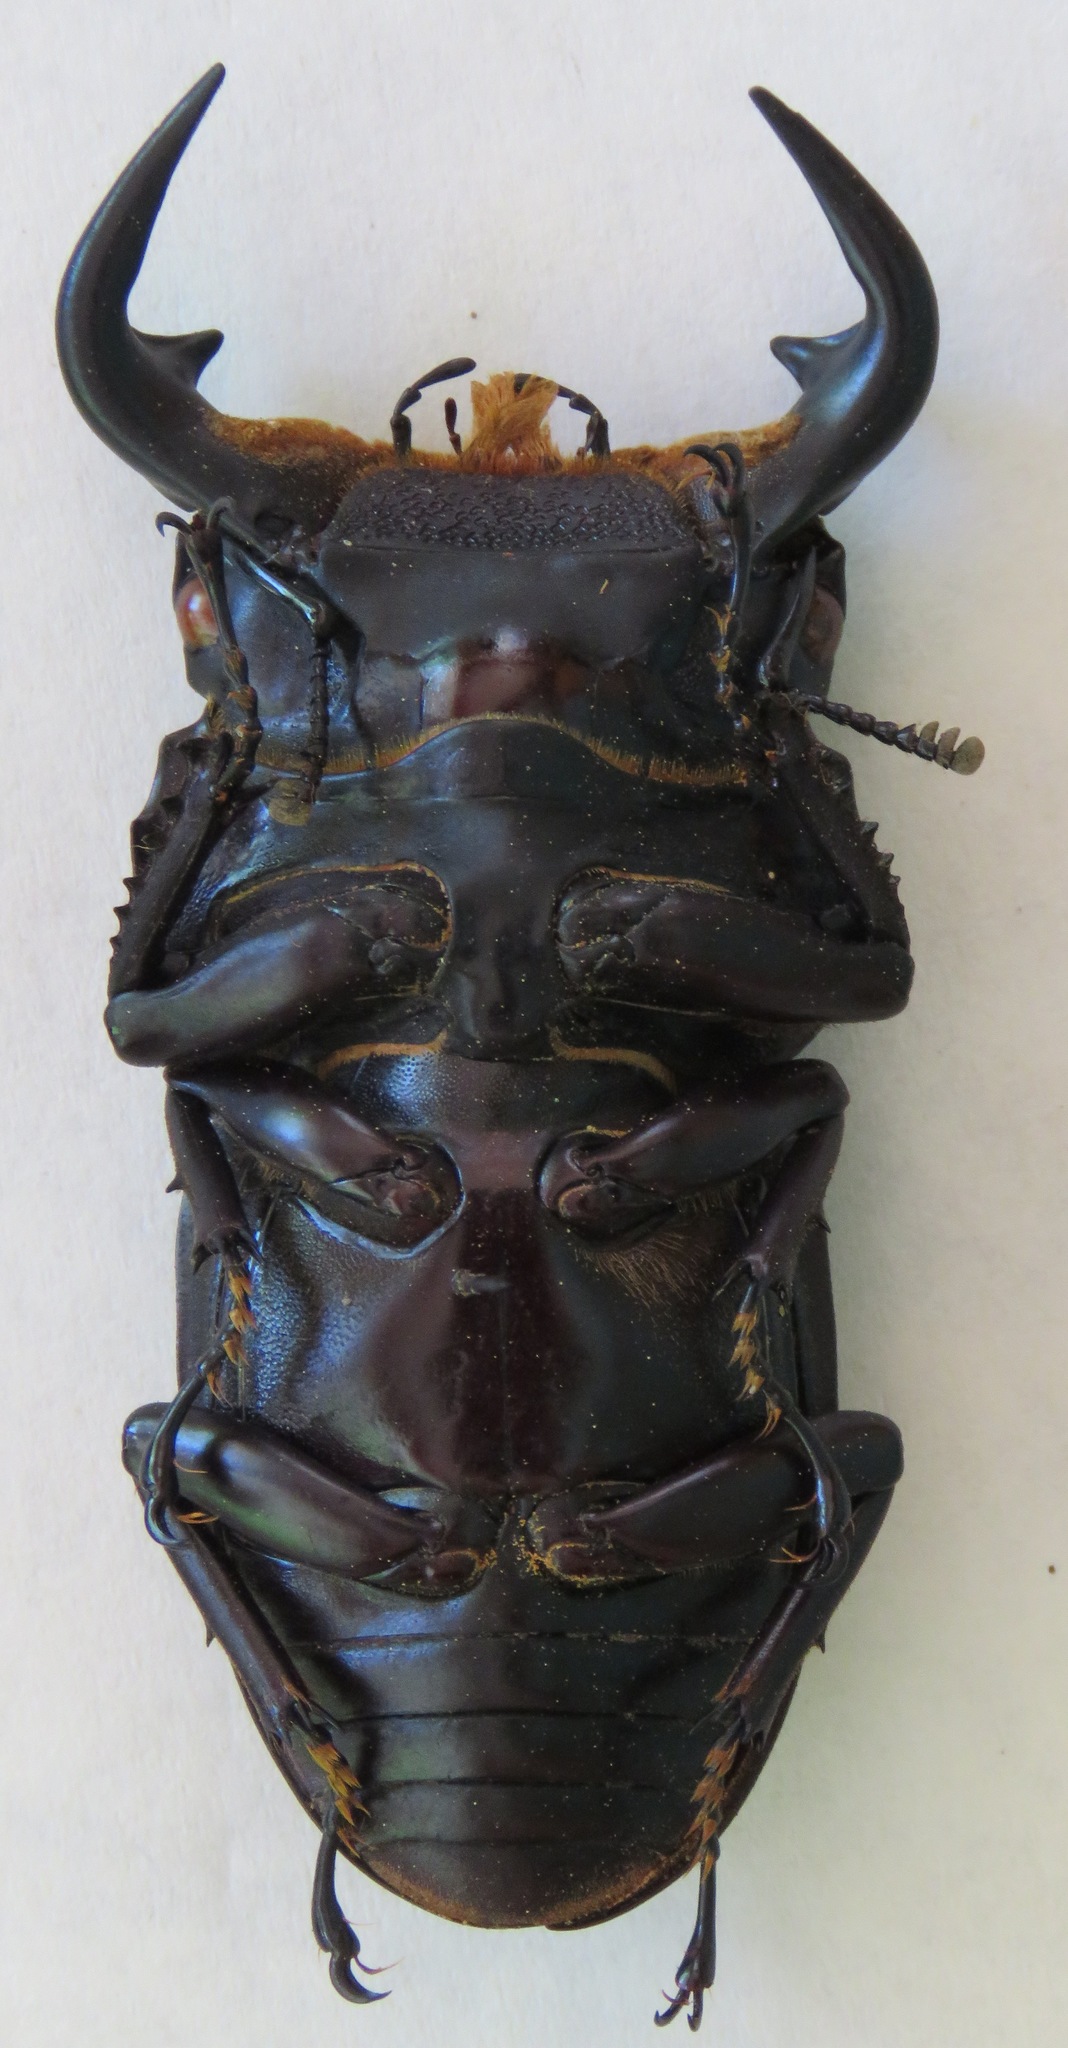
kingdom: Animalia
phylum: Arthropoda
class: Insecta
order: Coleoptera
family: Lucanidae
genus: Dorcus
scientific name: Dorcus antaeus
